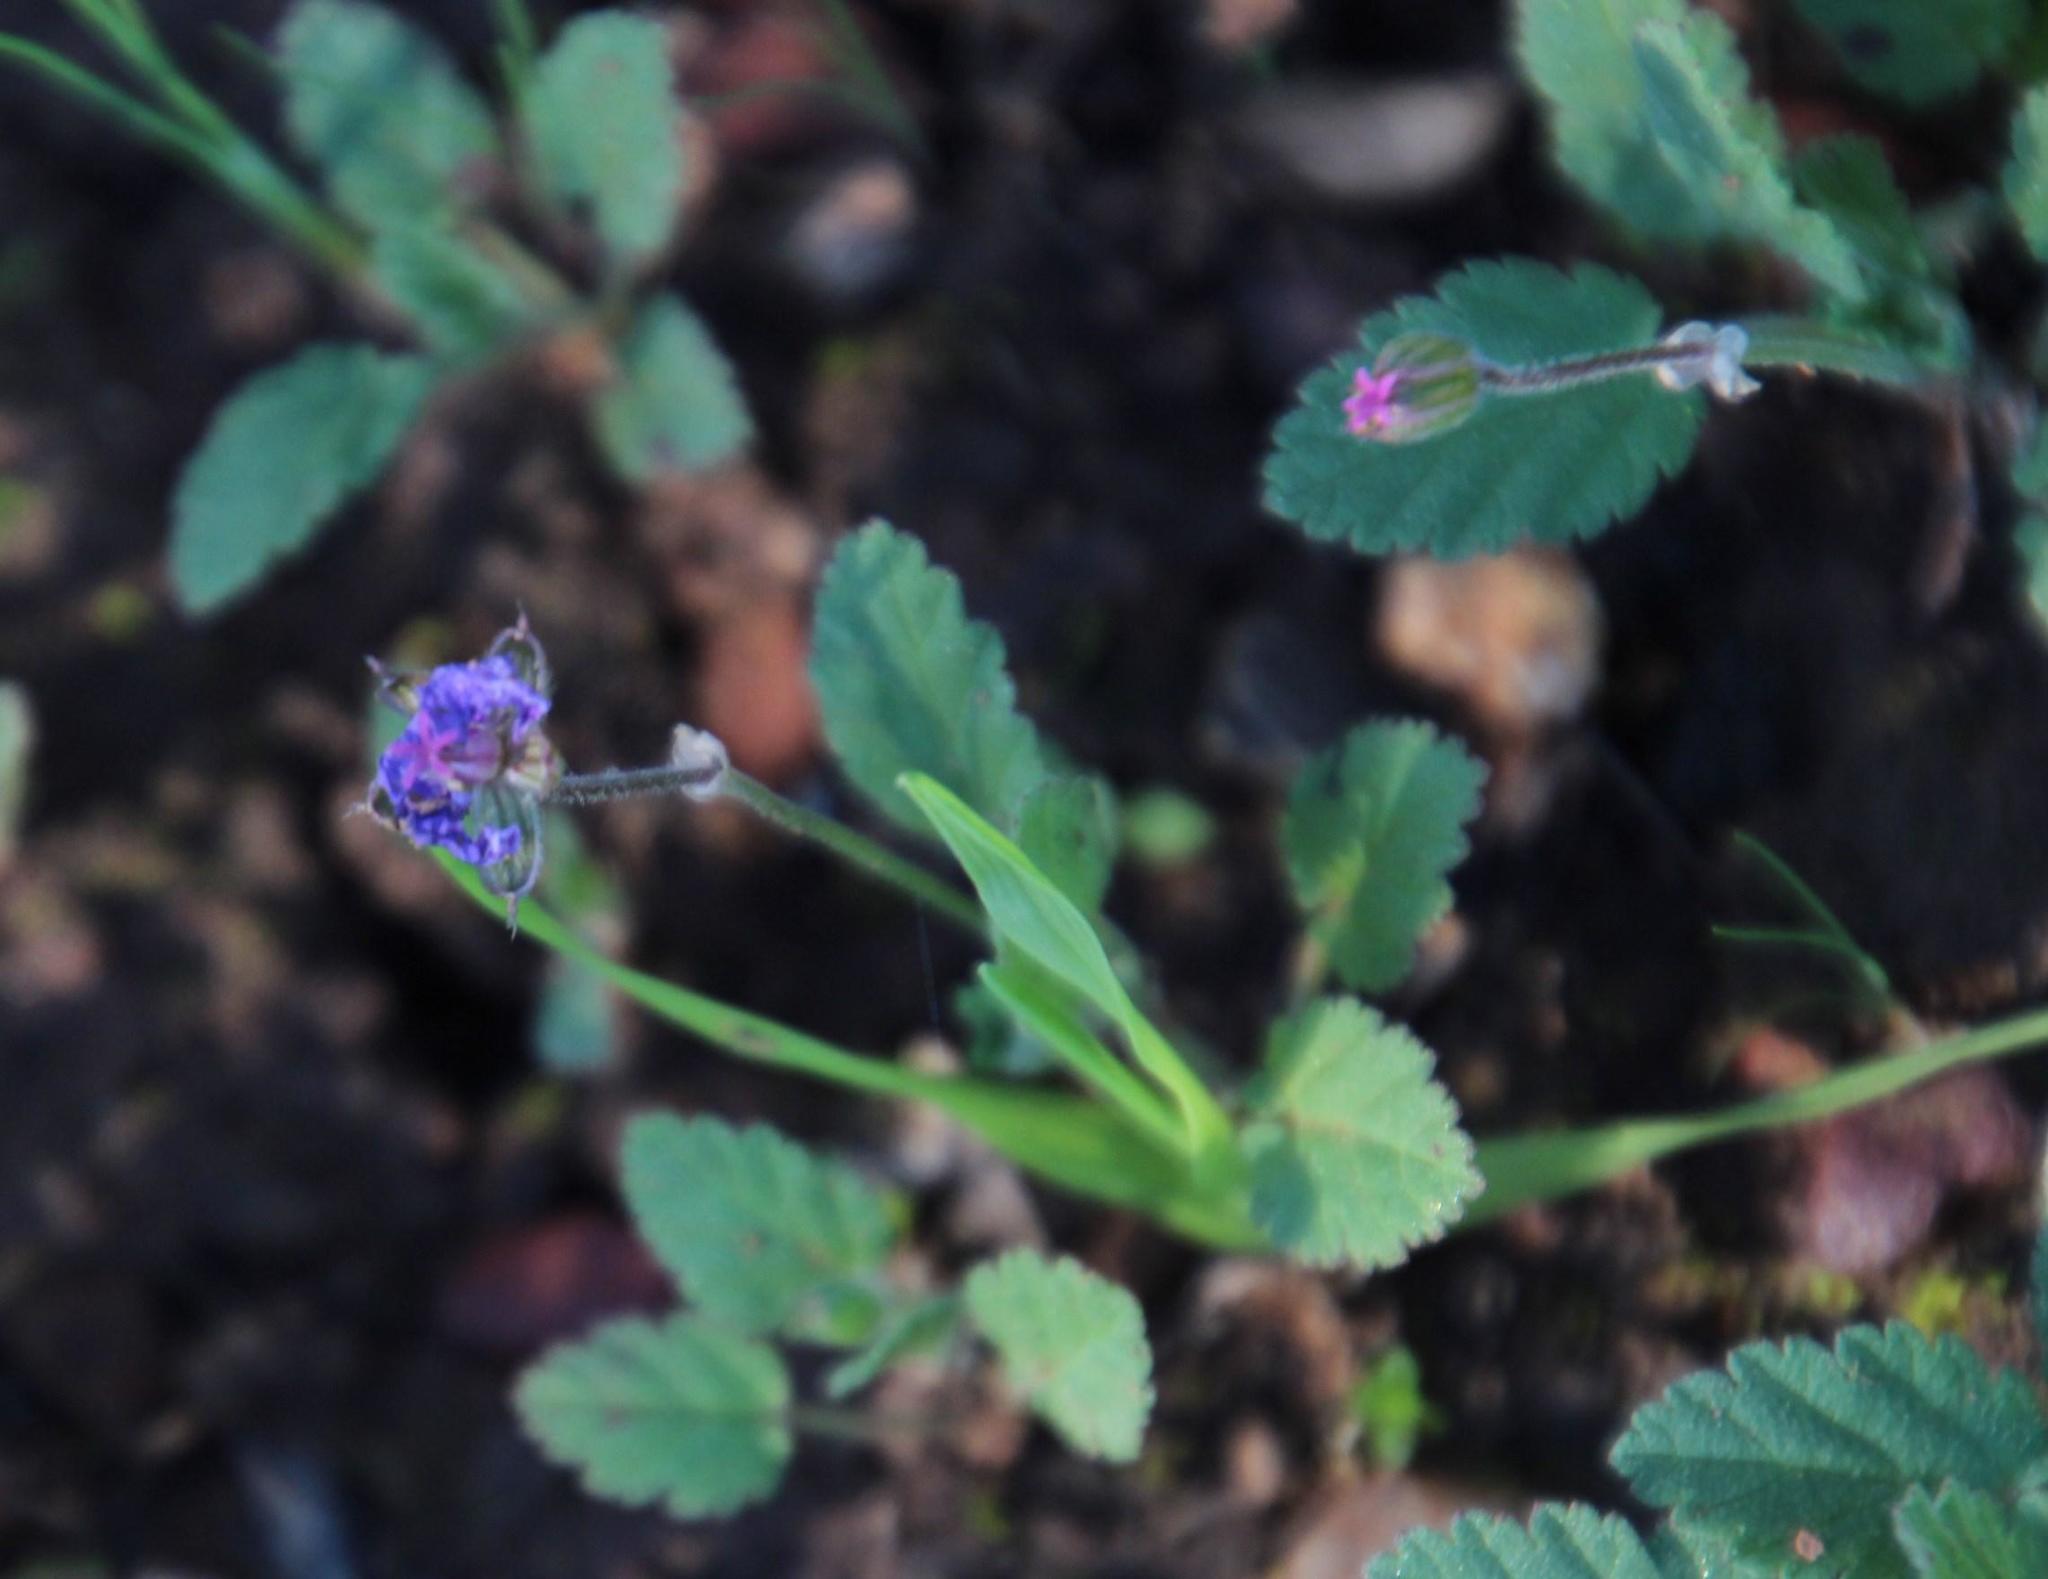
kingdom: Plantae
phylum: Tracheophyta
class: Magnoliopsida
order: Geraniales
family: Geraniaceae
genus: Erodium
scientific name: Erodium malacoides
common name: Soft stork's-bill
